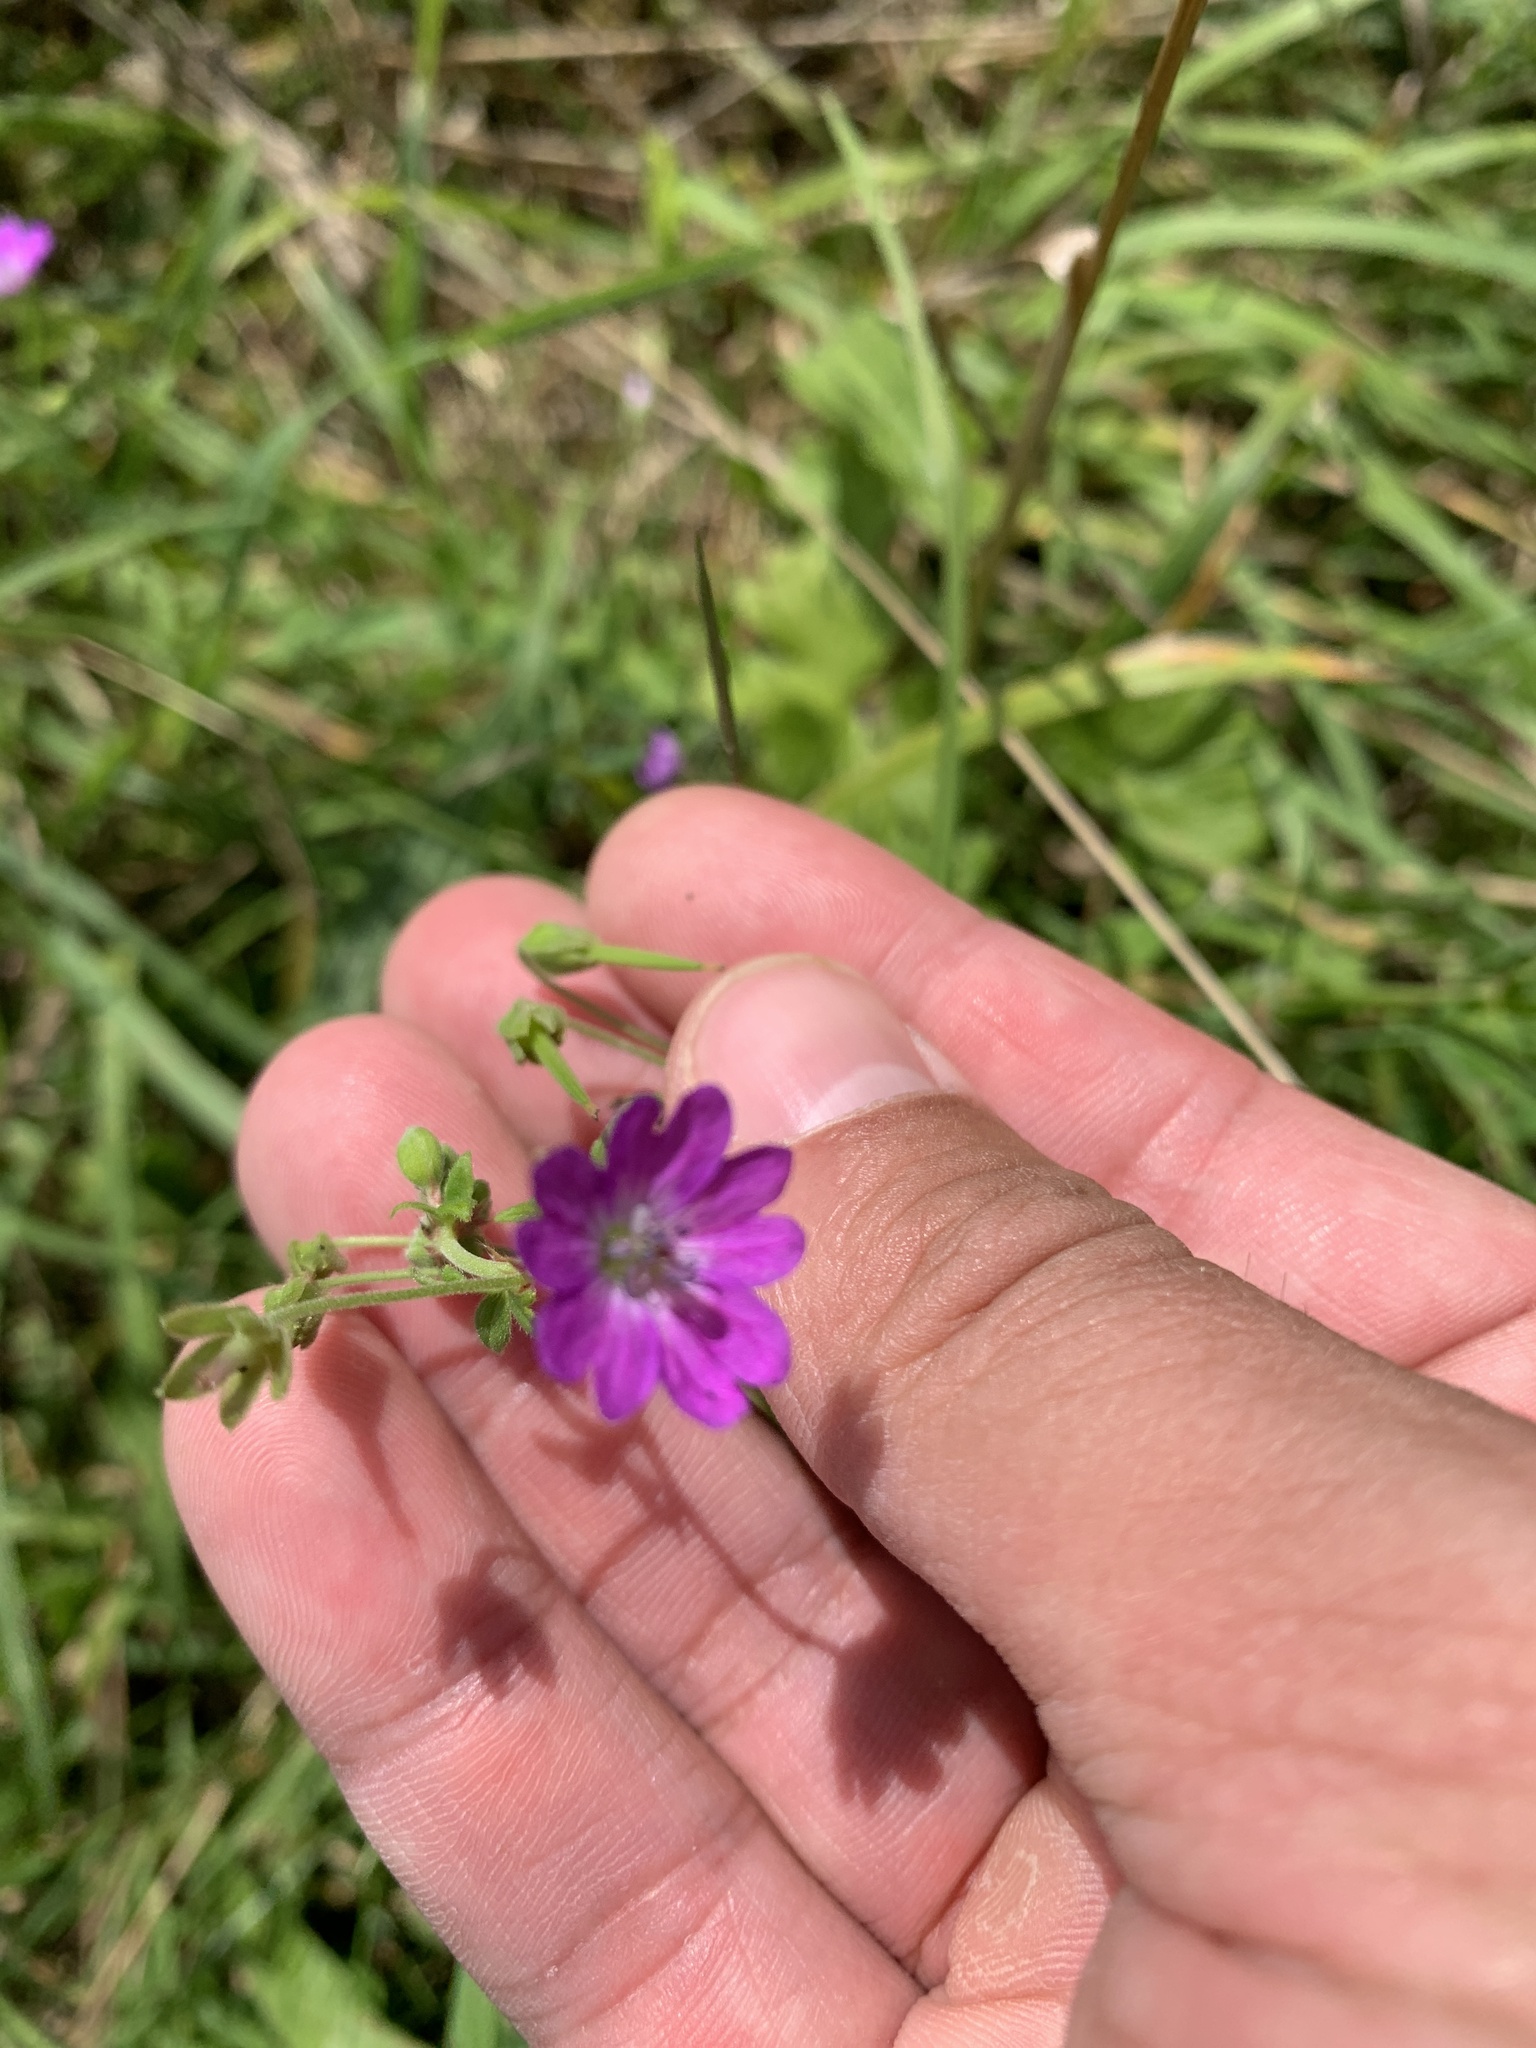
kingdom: Plantae
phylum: Tracheophyta
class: Magnoliopsida
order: Geraniales
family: Geraniaceae
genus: Geranium
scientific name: Geranium pyrenaicum
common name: Hedgerow crane's-bill
